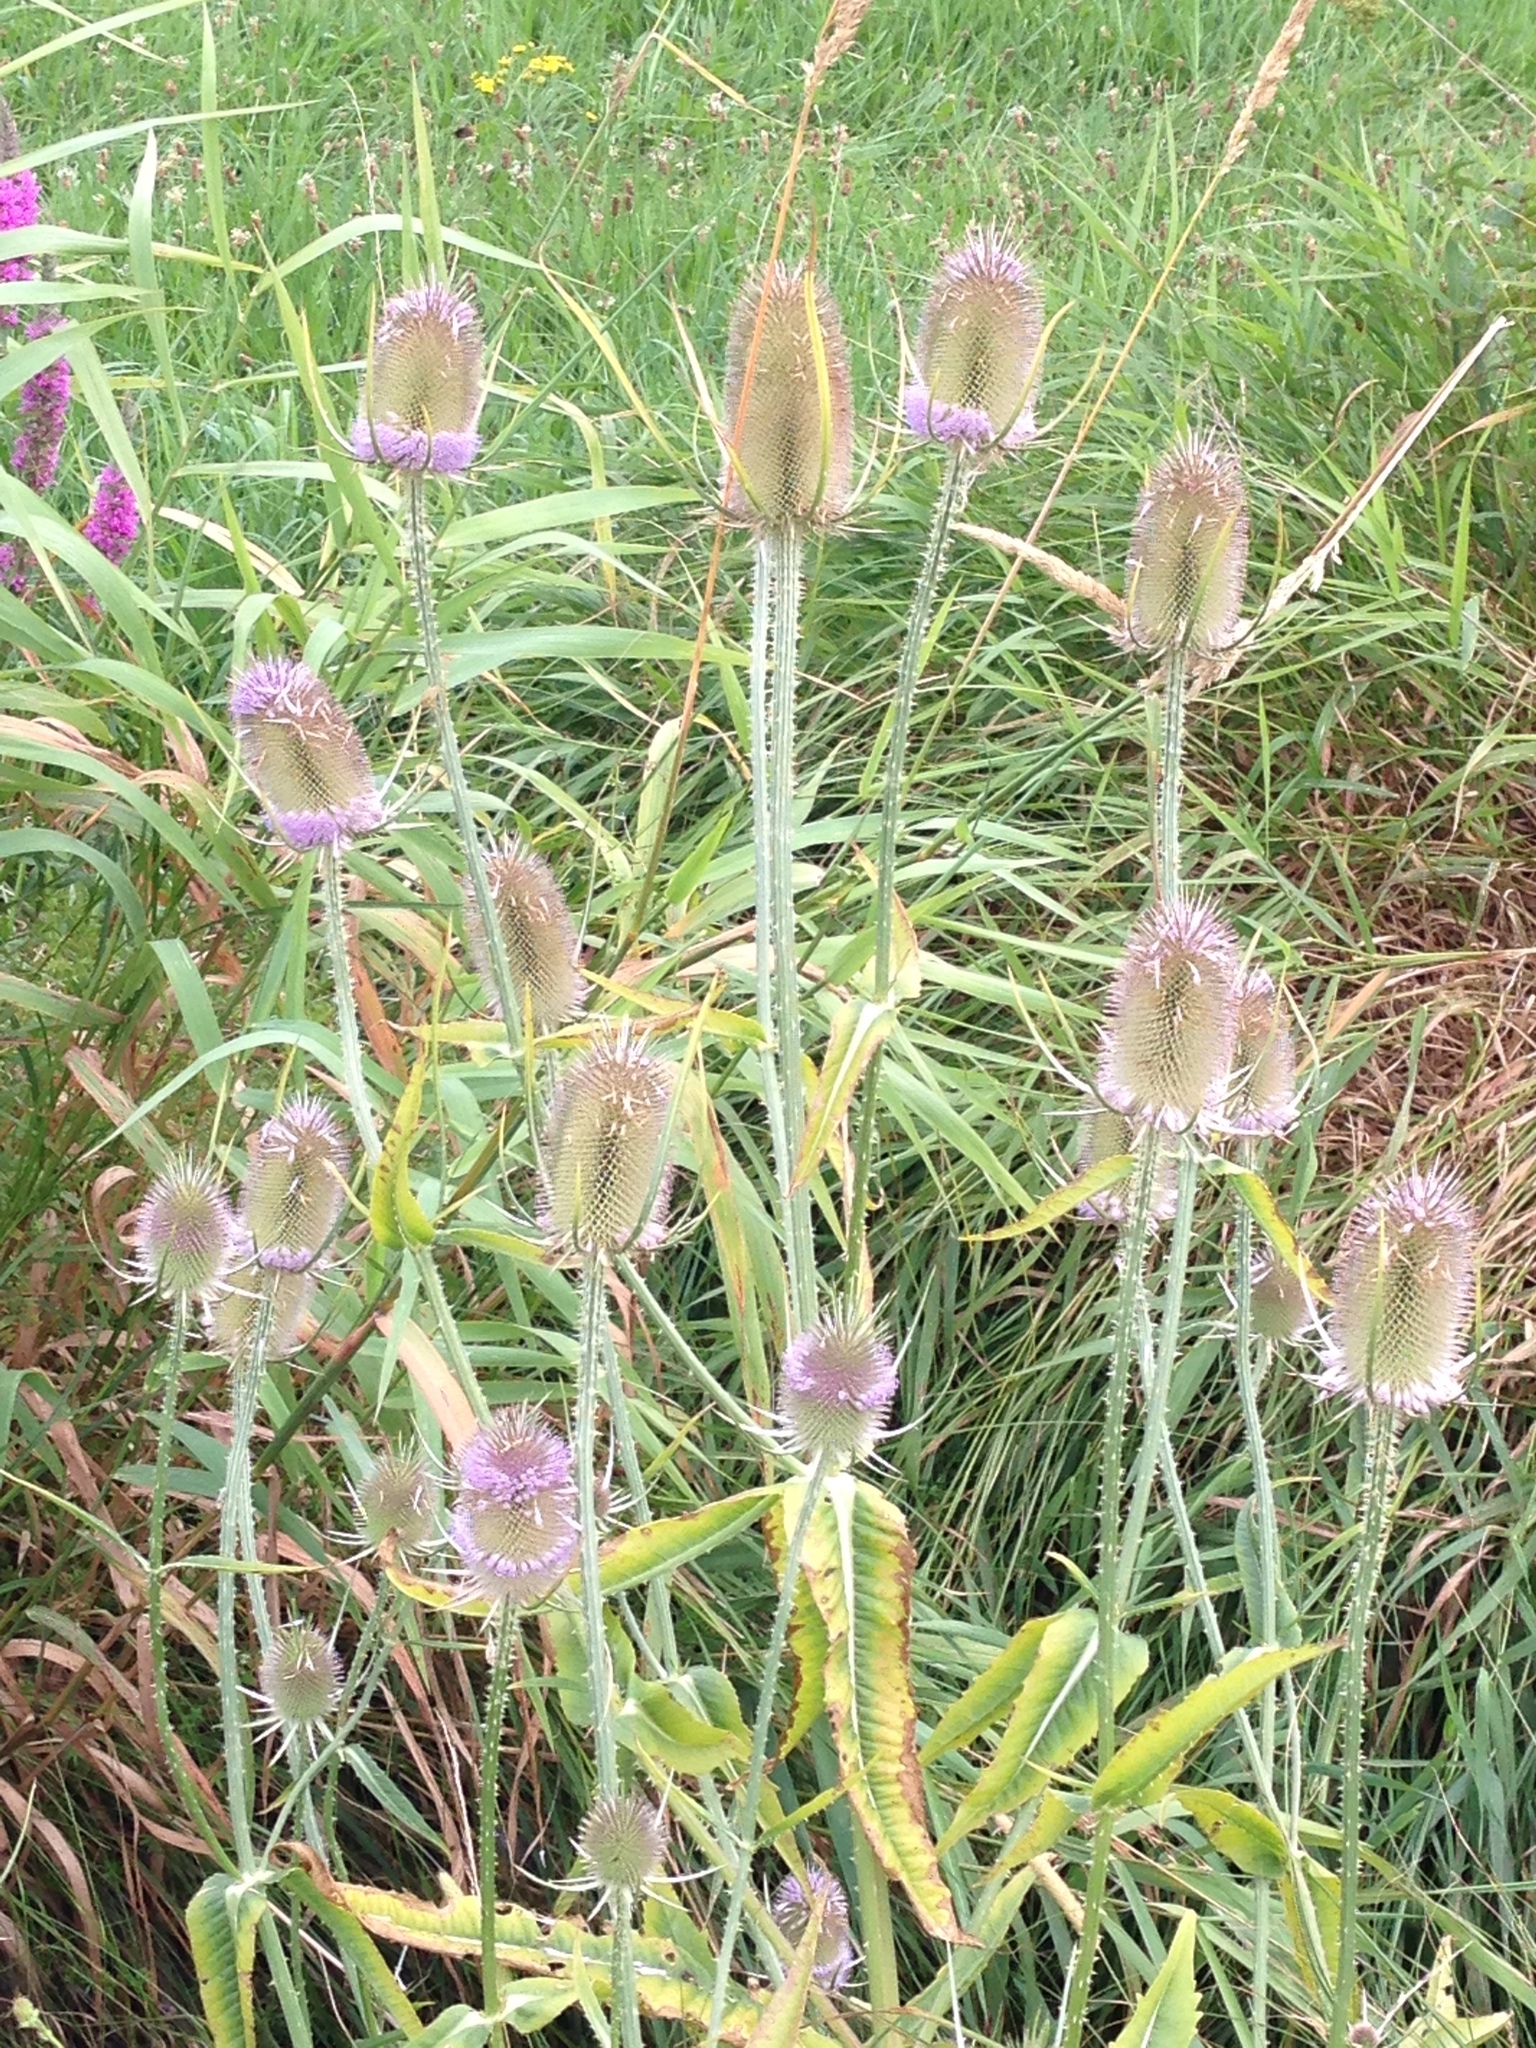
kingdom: Plantae
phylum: Tracheophyta
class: Magnoliopsida
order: Dipsacales
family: Caprifoliaceae
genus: Dipsacus
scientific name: Dipsacus fullonum
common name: Teasel
